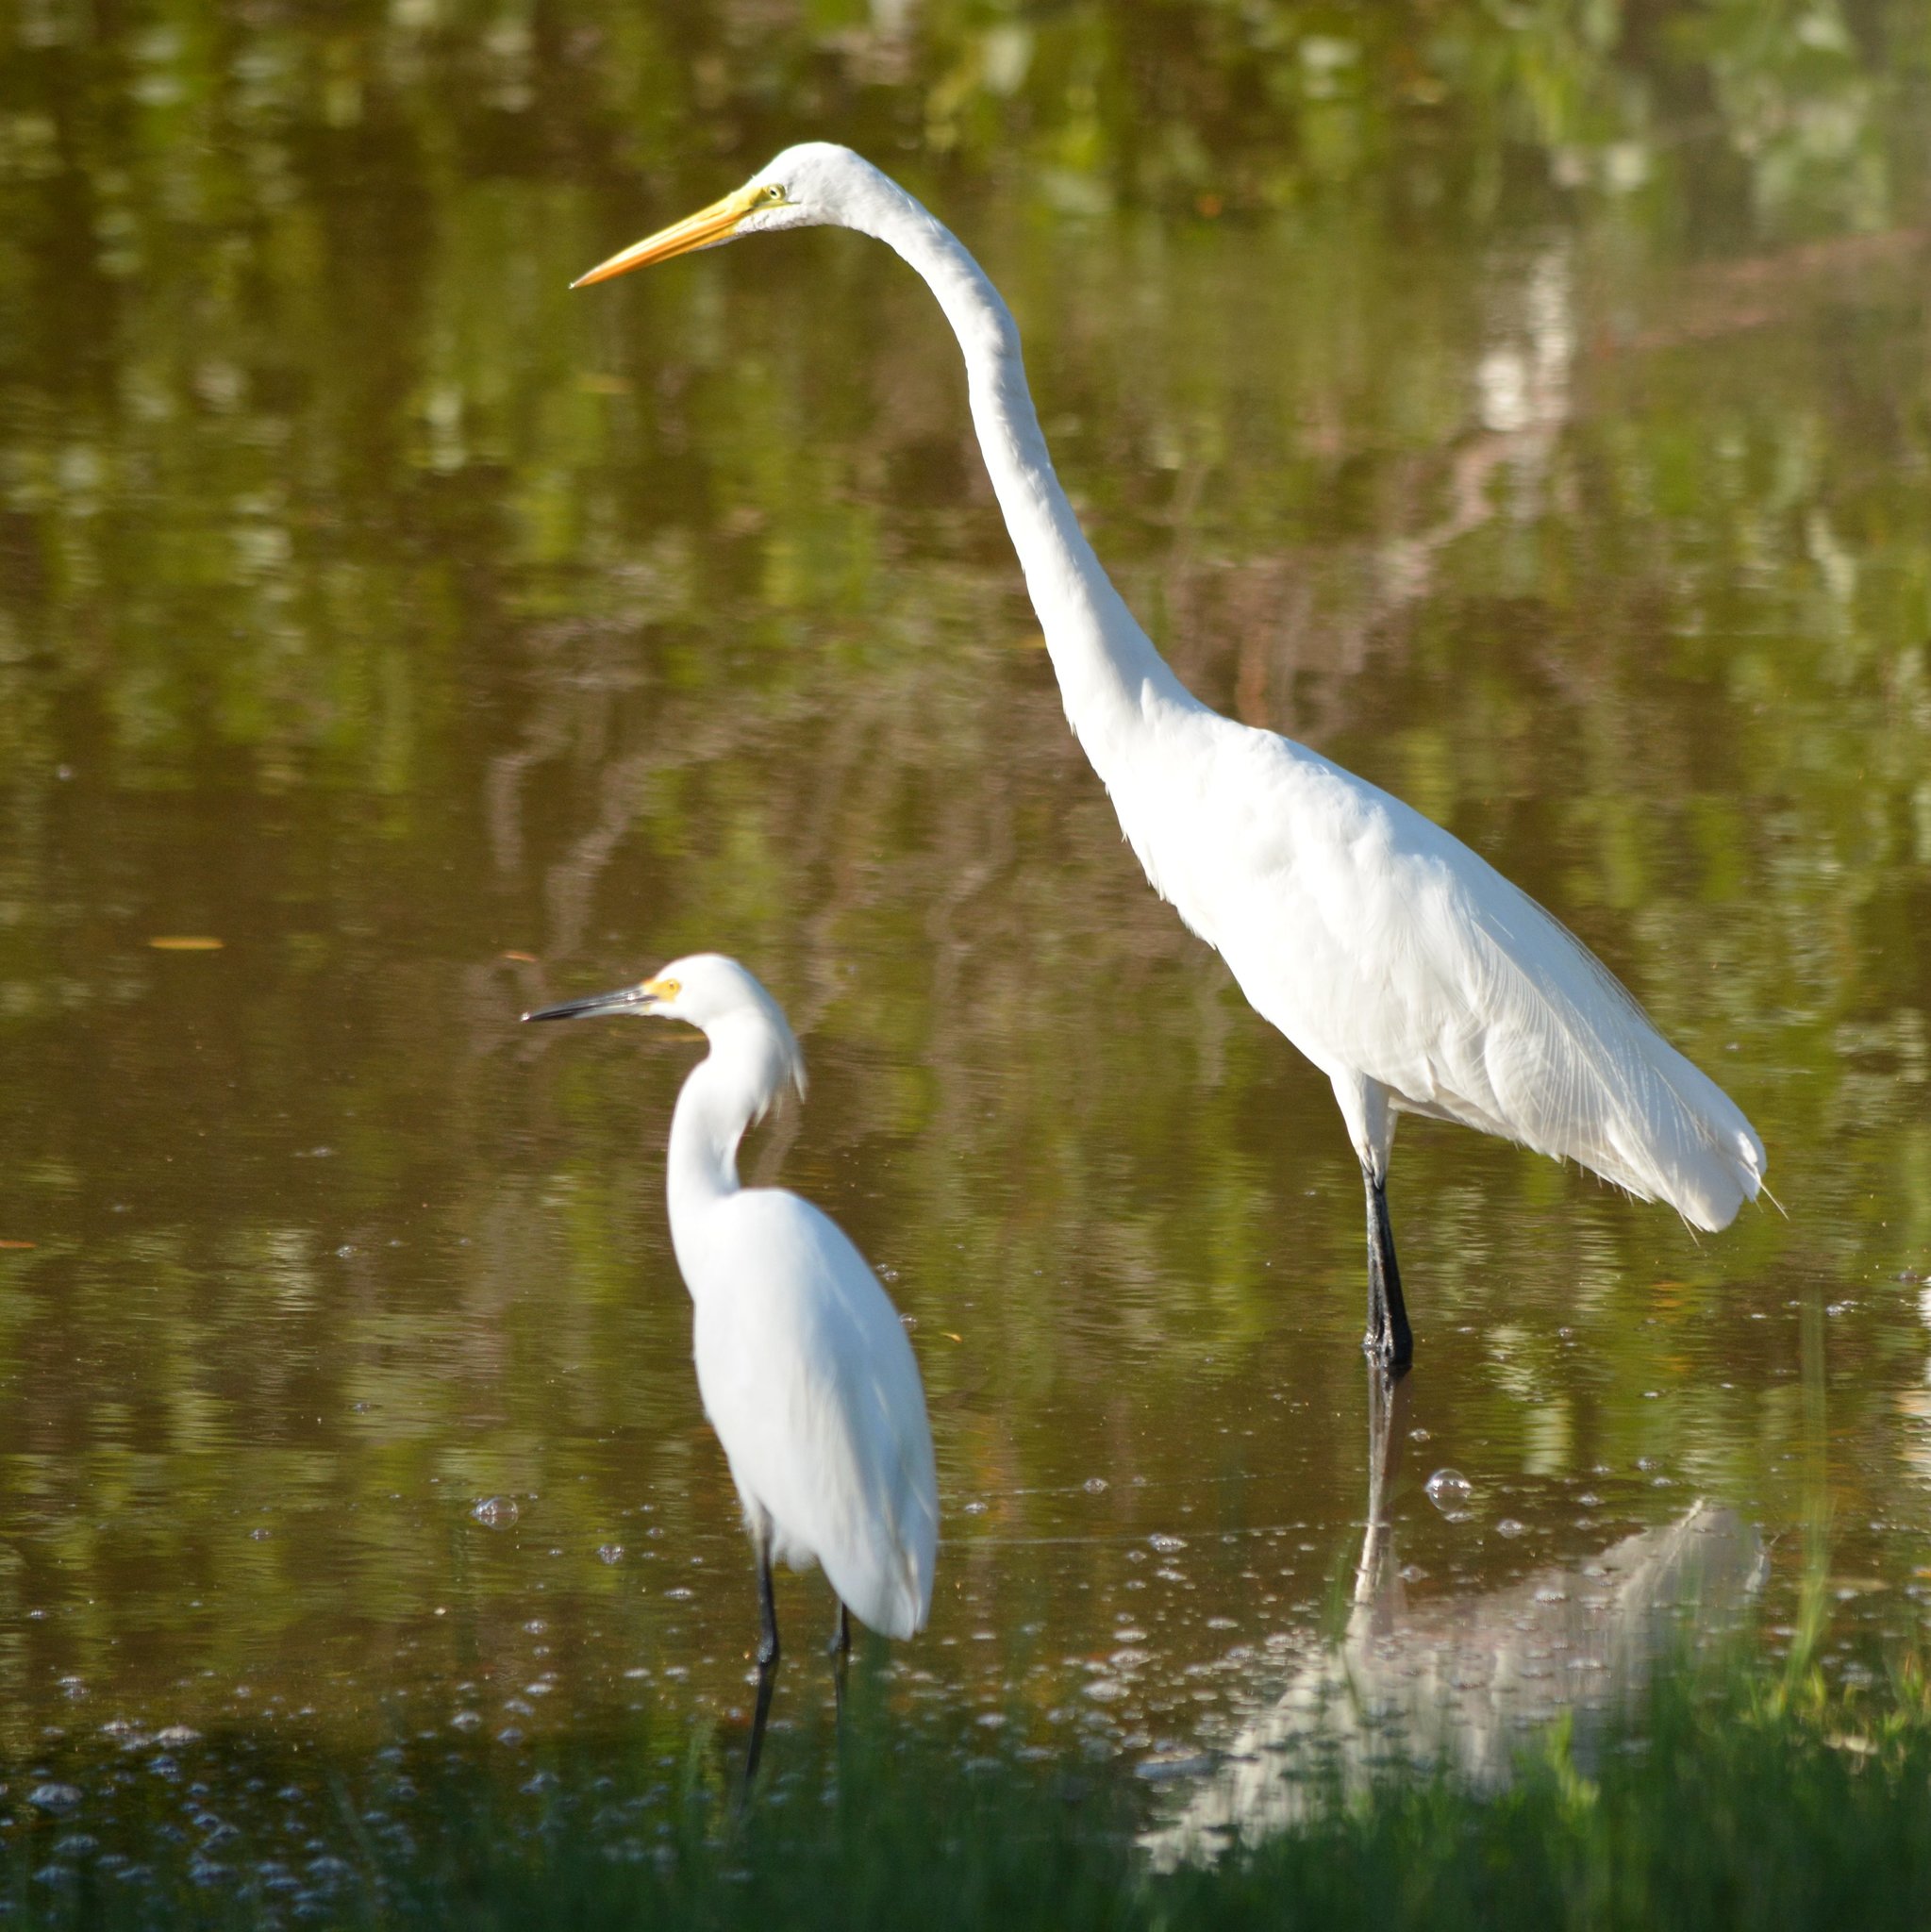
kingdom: Animalia
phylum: Chordata
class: Aves
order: Pelecaniformes
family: Ardeidae
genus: Ardea
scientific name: Ardea alba
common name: Great egret
